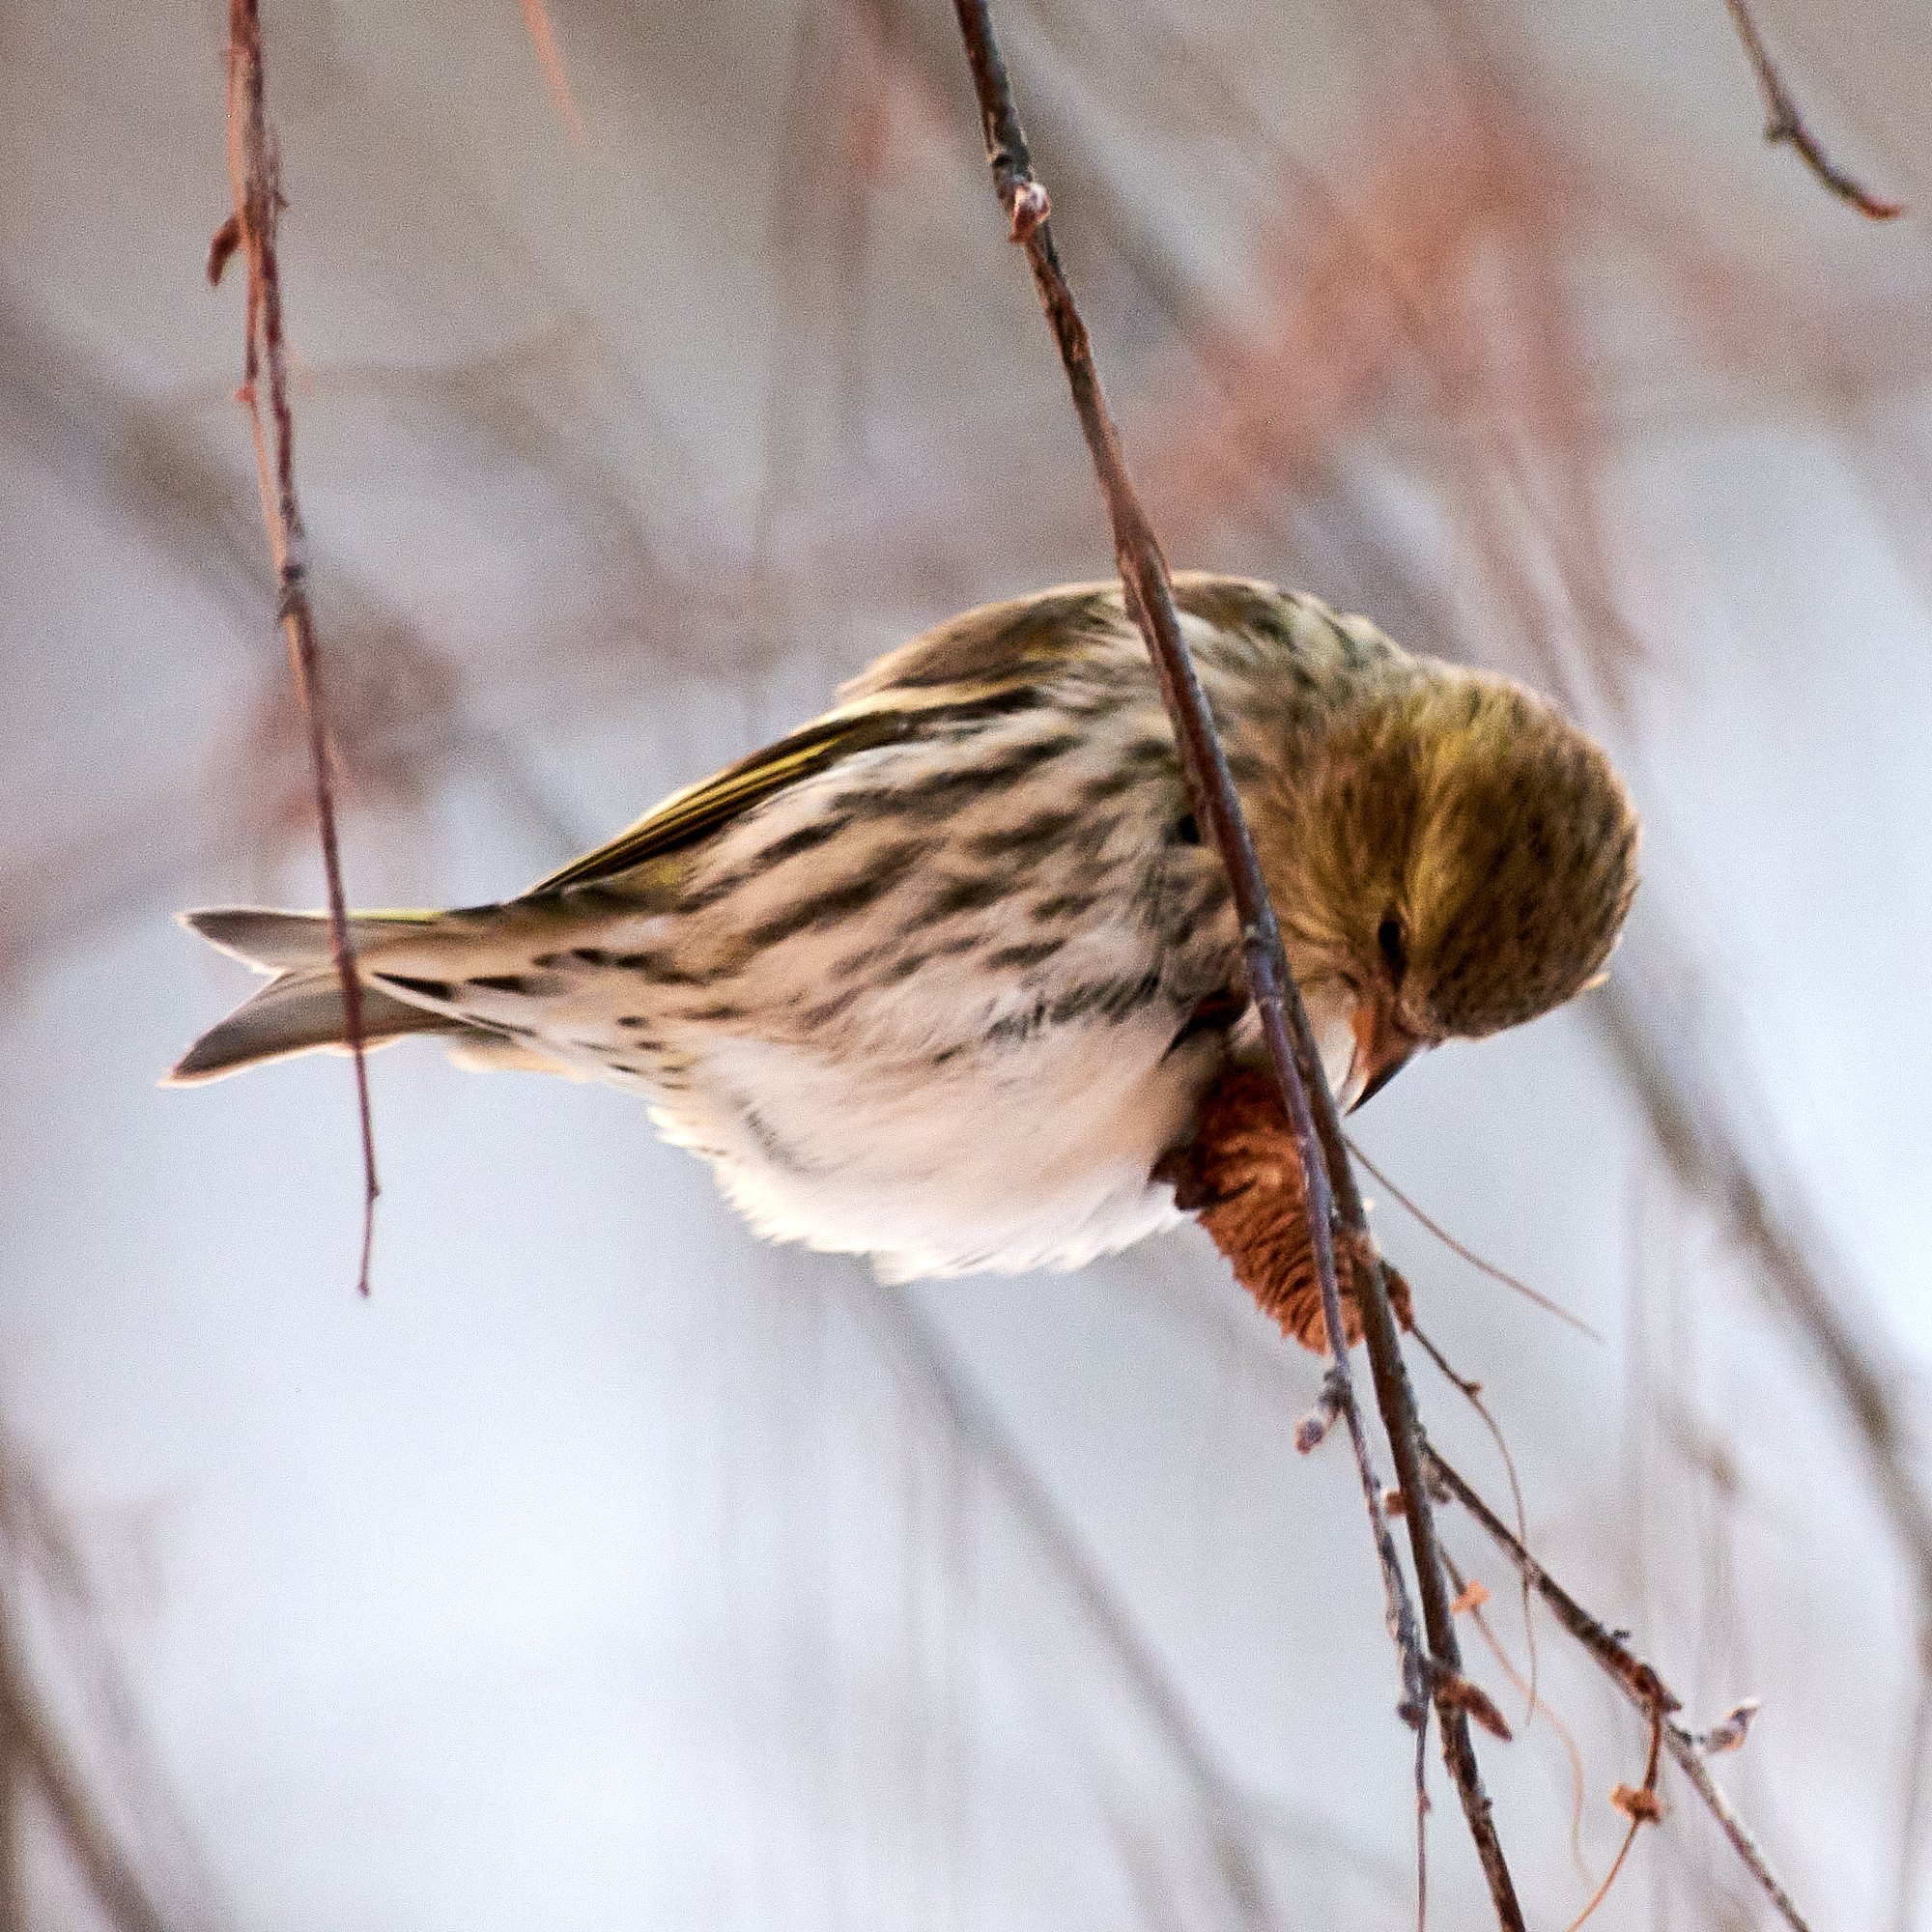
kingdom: Animalia
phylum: Chordata
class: Aves
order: Passeriformes
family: Fringillidae
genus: Spinus
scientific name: Spinus spinus
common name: Eurasian siskin
